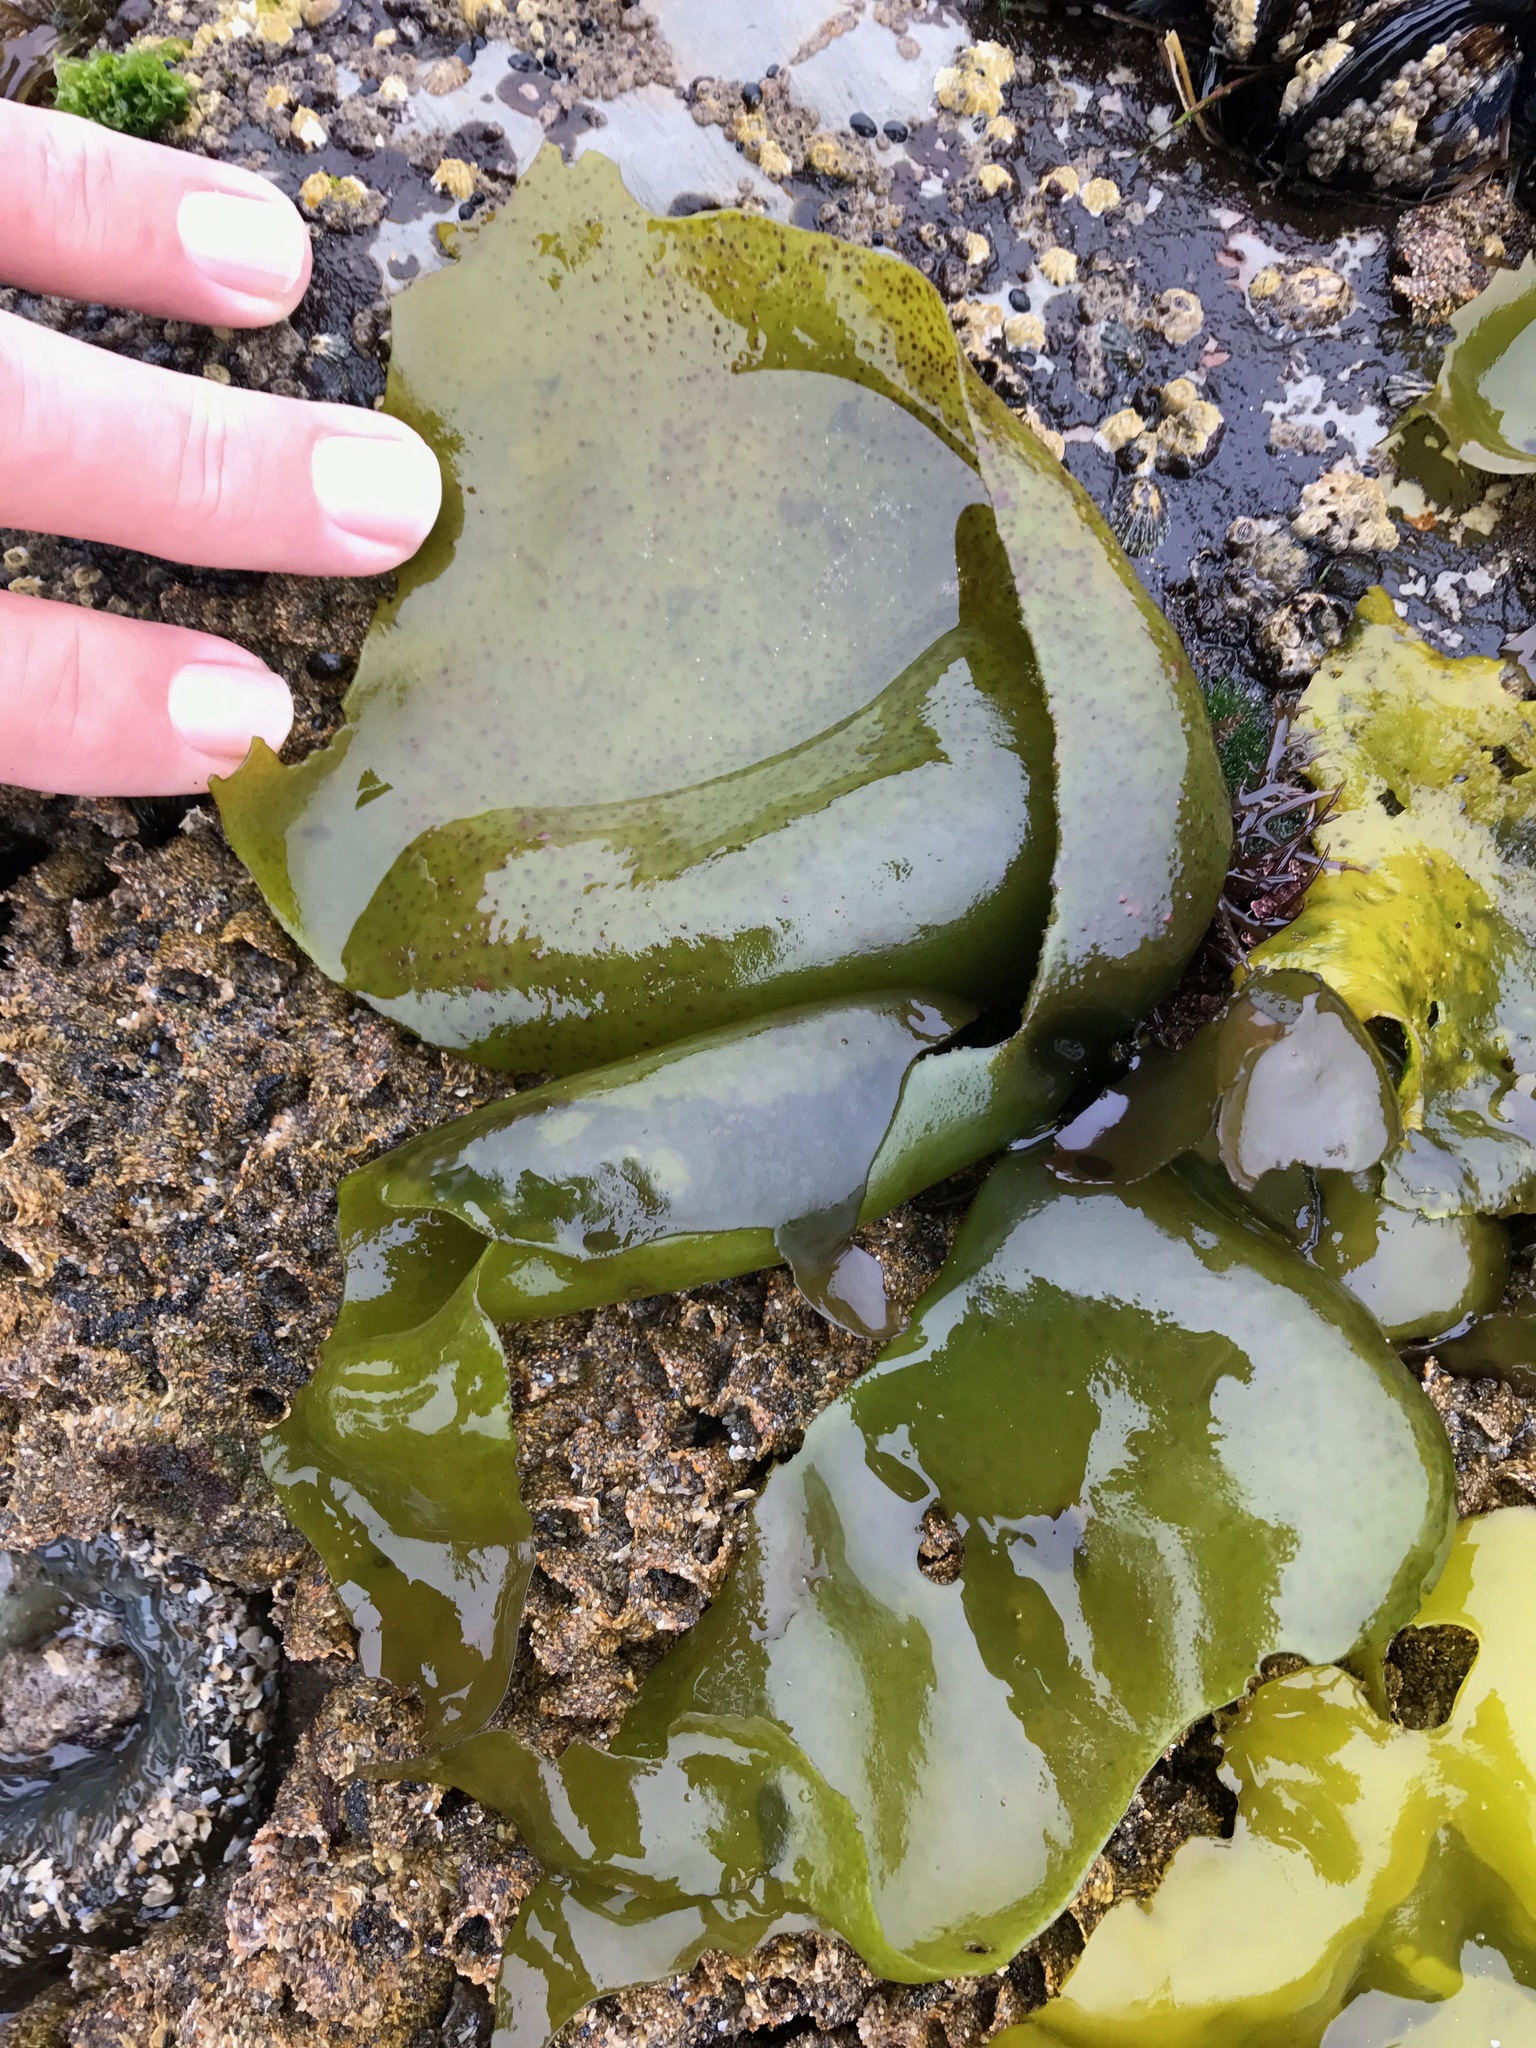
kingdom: Plantae
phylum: Rhodophyta
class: Florideophyceae
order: Gigartinales
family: Gigartinaceae
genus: Mazzaella
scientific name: Mazzaella flaccida
